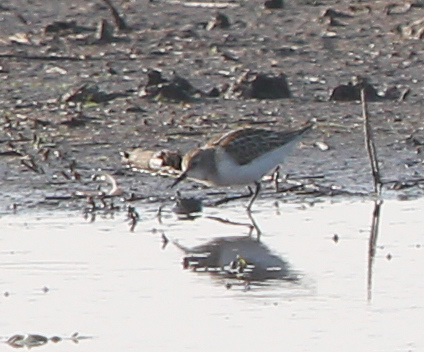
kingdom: Animalia
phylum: Chordata
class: Aves
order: Charadriiformes
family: Scolopacidae
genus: Calidris
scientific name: Calidris minuta
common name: Little stint
